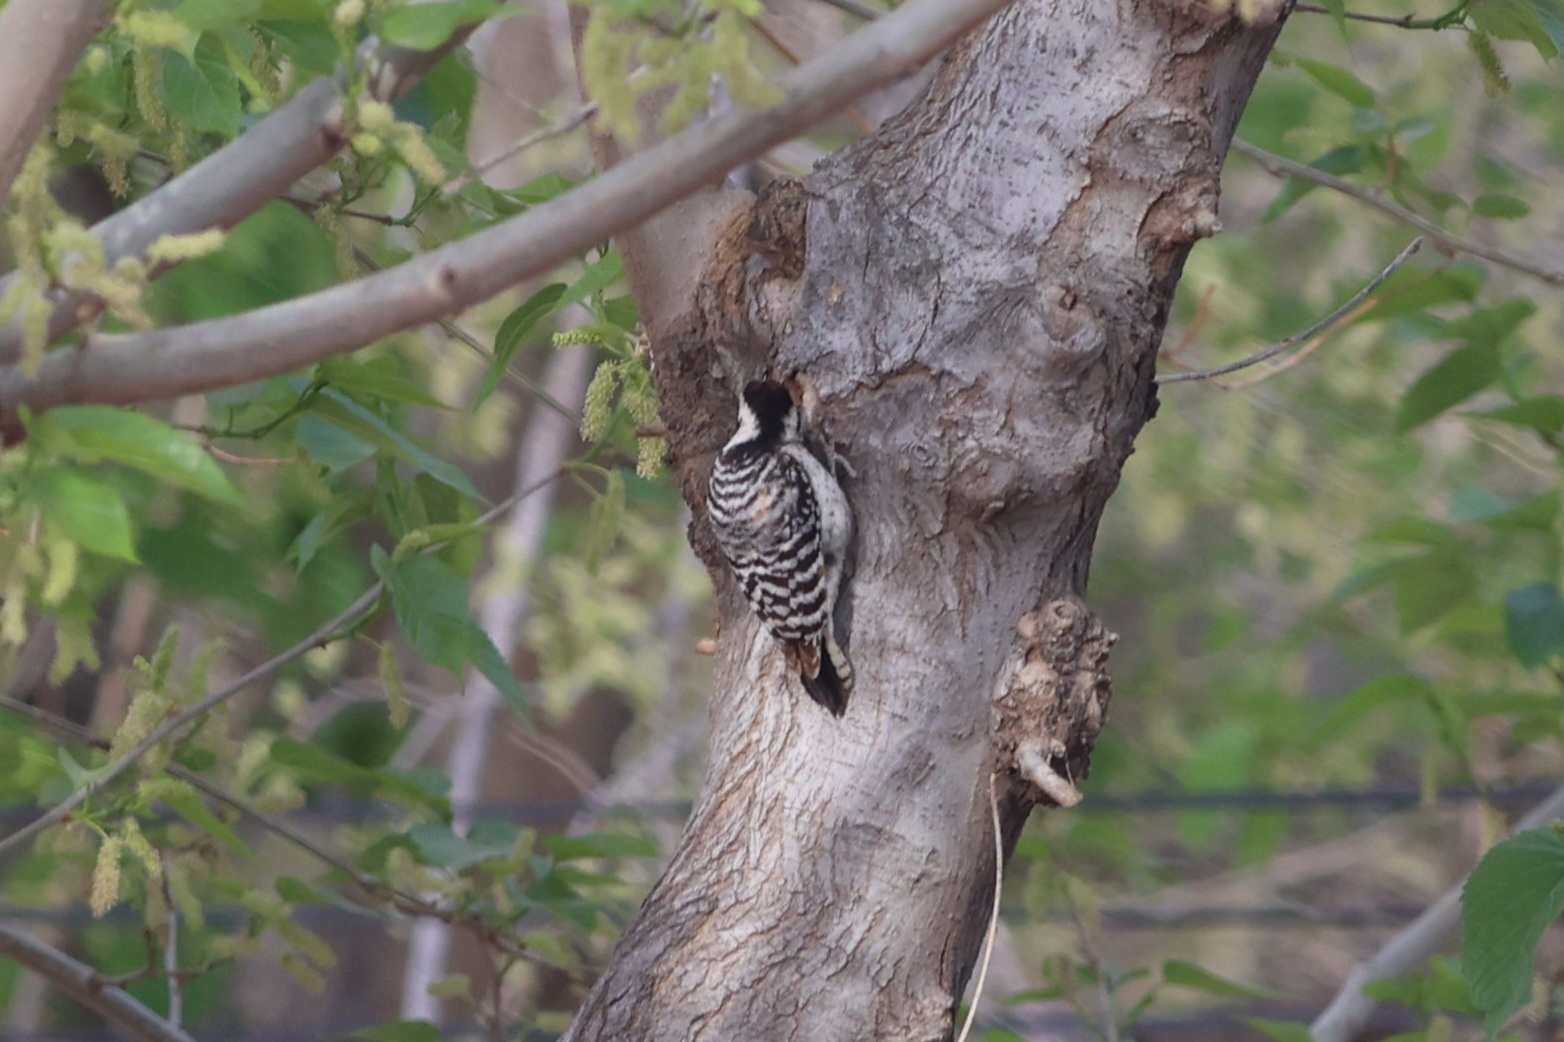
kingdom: Animalia
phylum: Chordata
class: Aves
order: Piciformes
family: Picidae
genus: Dryobates
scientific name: Dryobates scalaris
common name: Ladder-backed woodpecker
